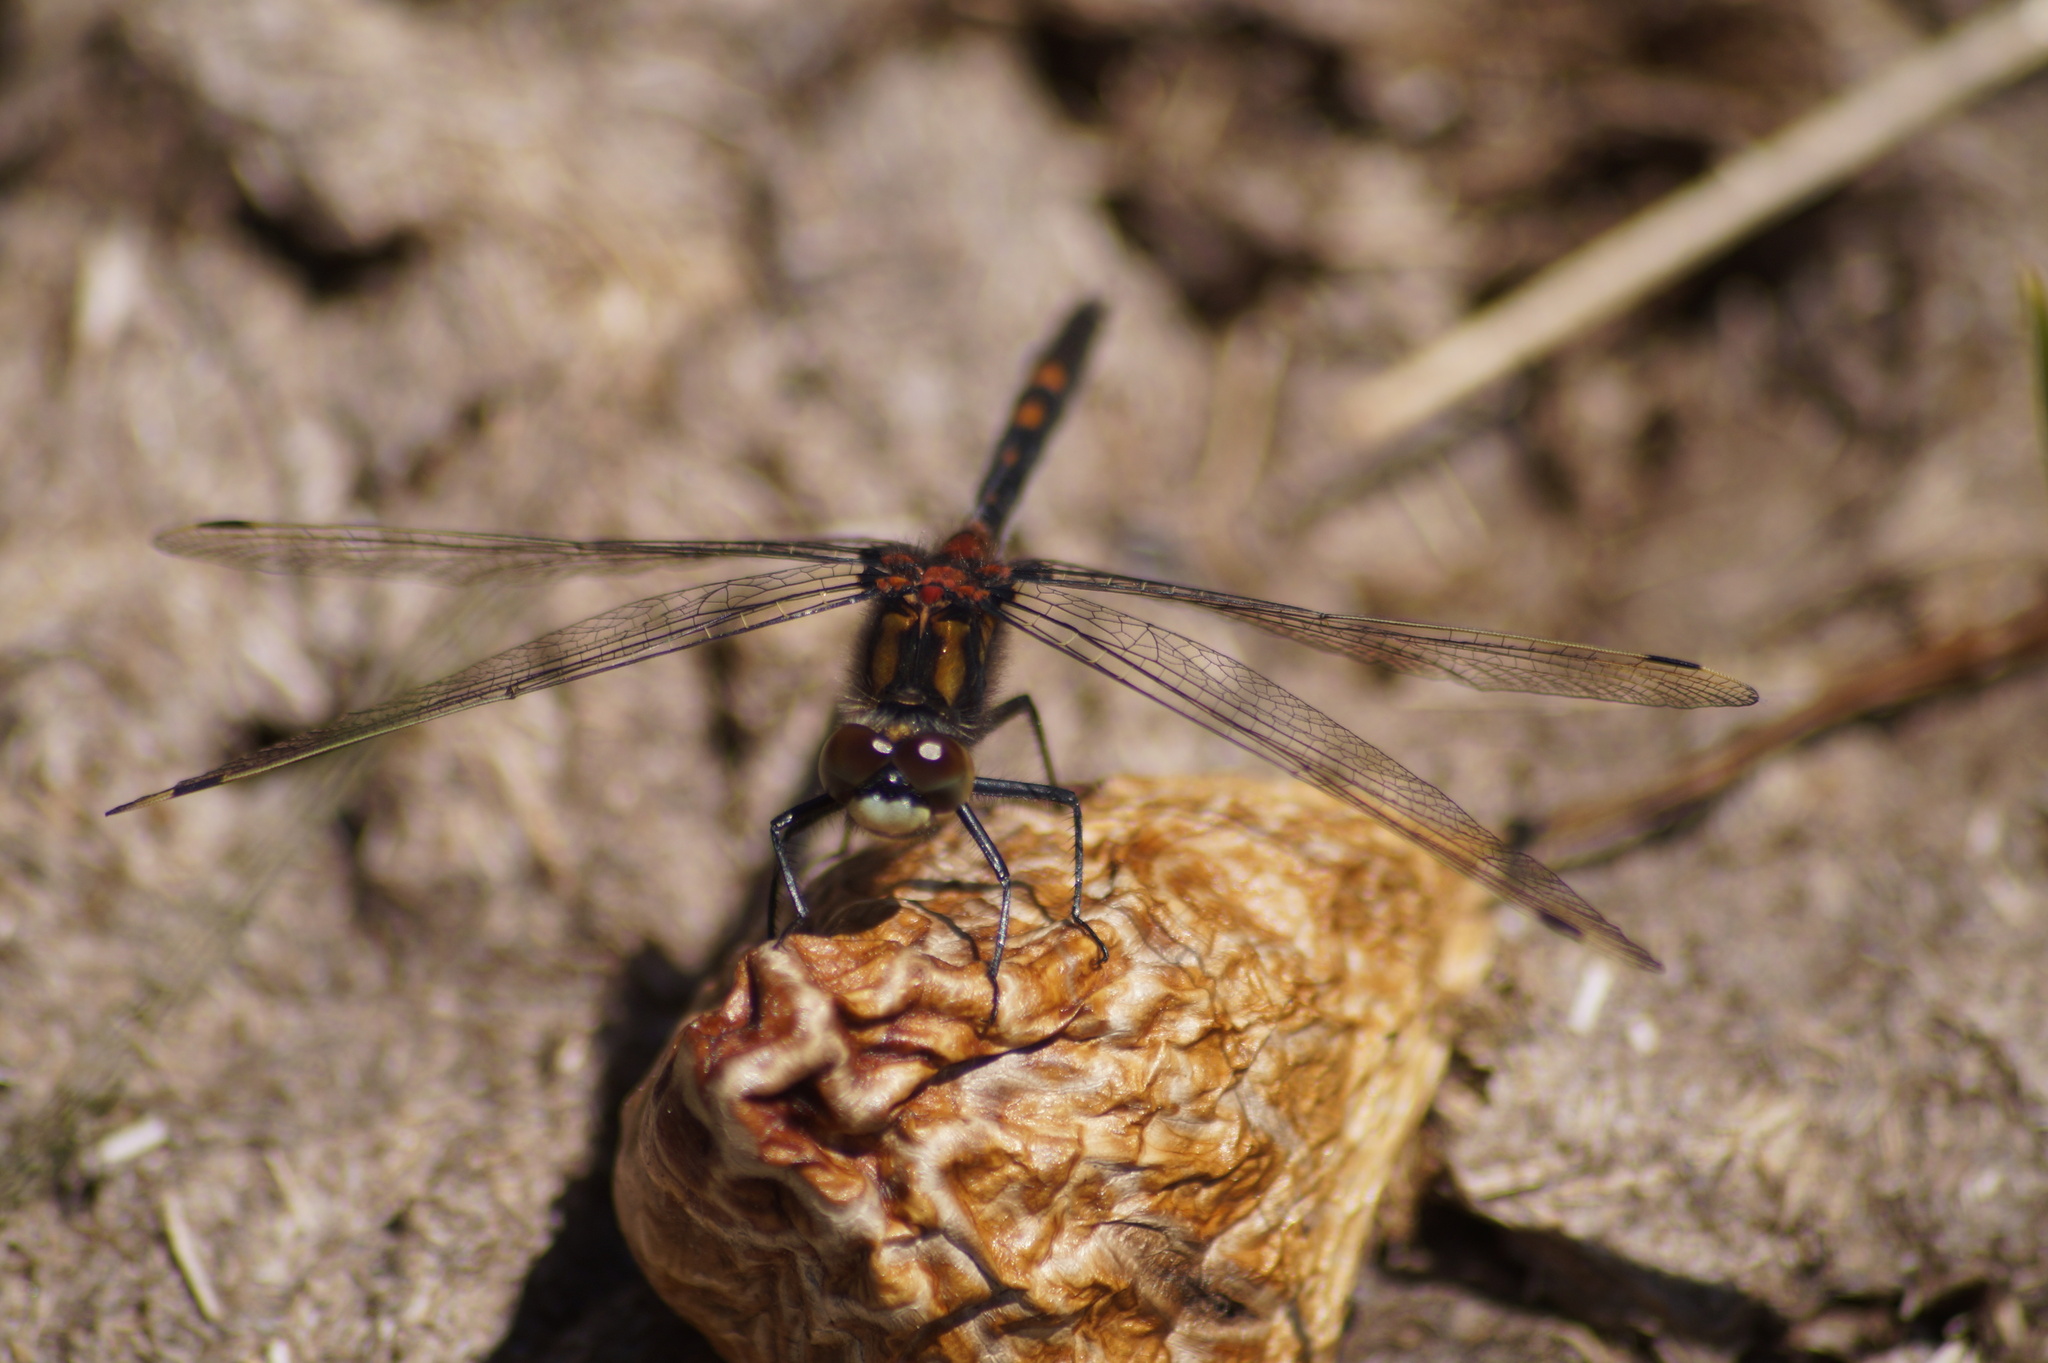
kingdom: Animalia
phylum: Arthropoda
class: Insecta
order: Odonata
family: Libellulidae
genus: Leucorrhinia
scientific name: Leucorrhinia dubia
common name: White-faced darter
